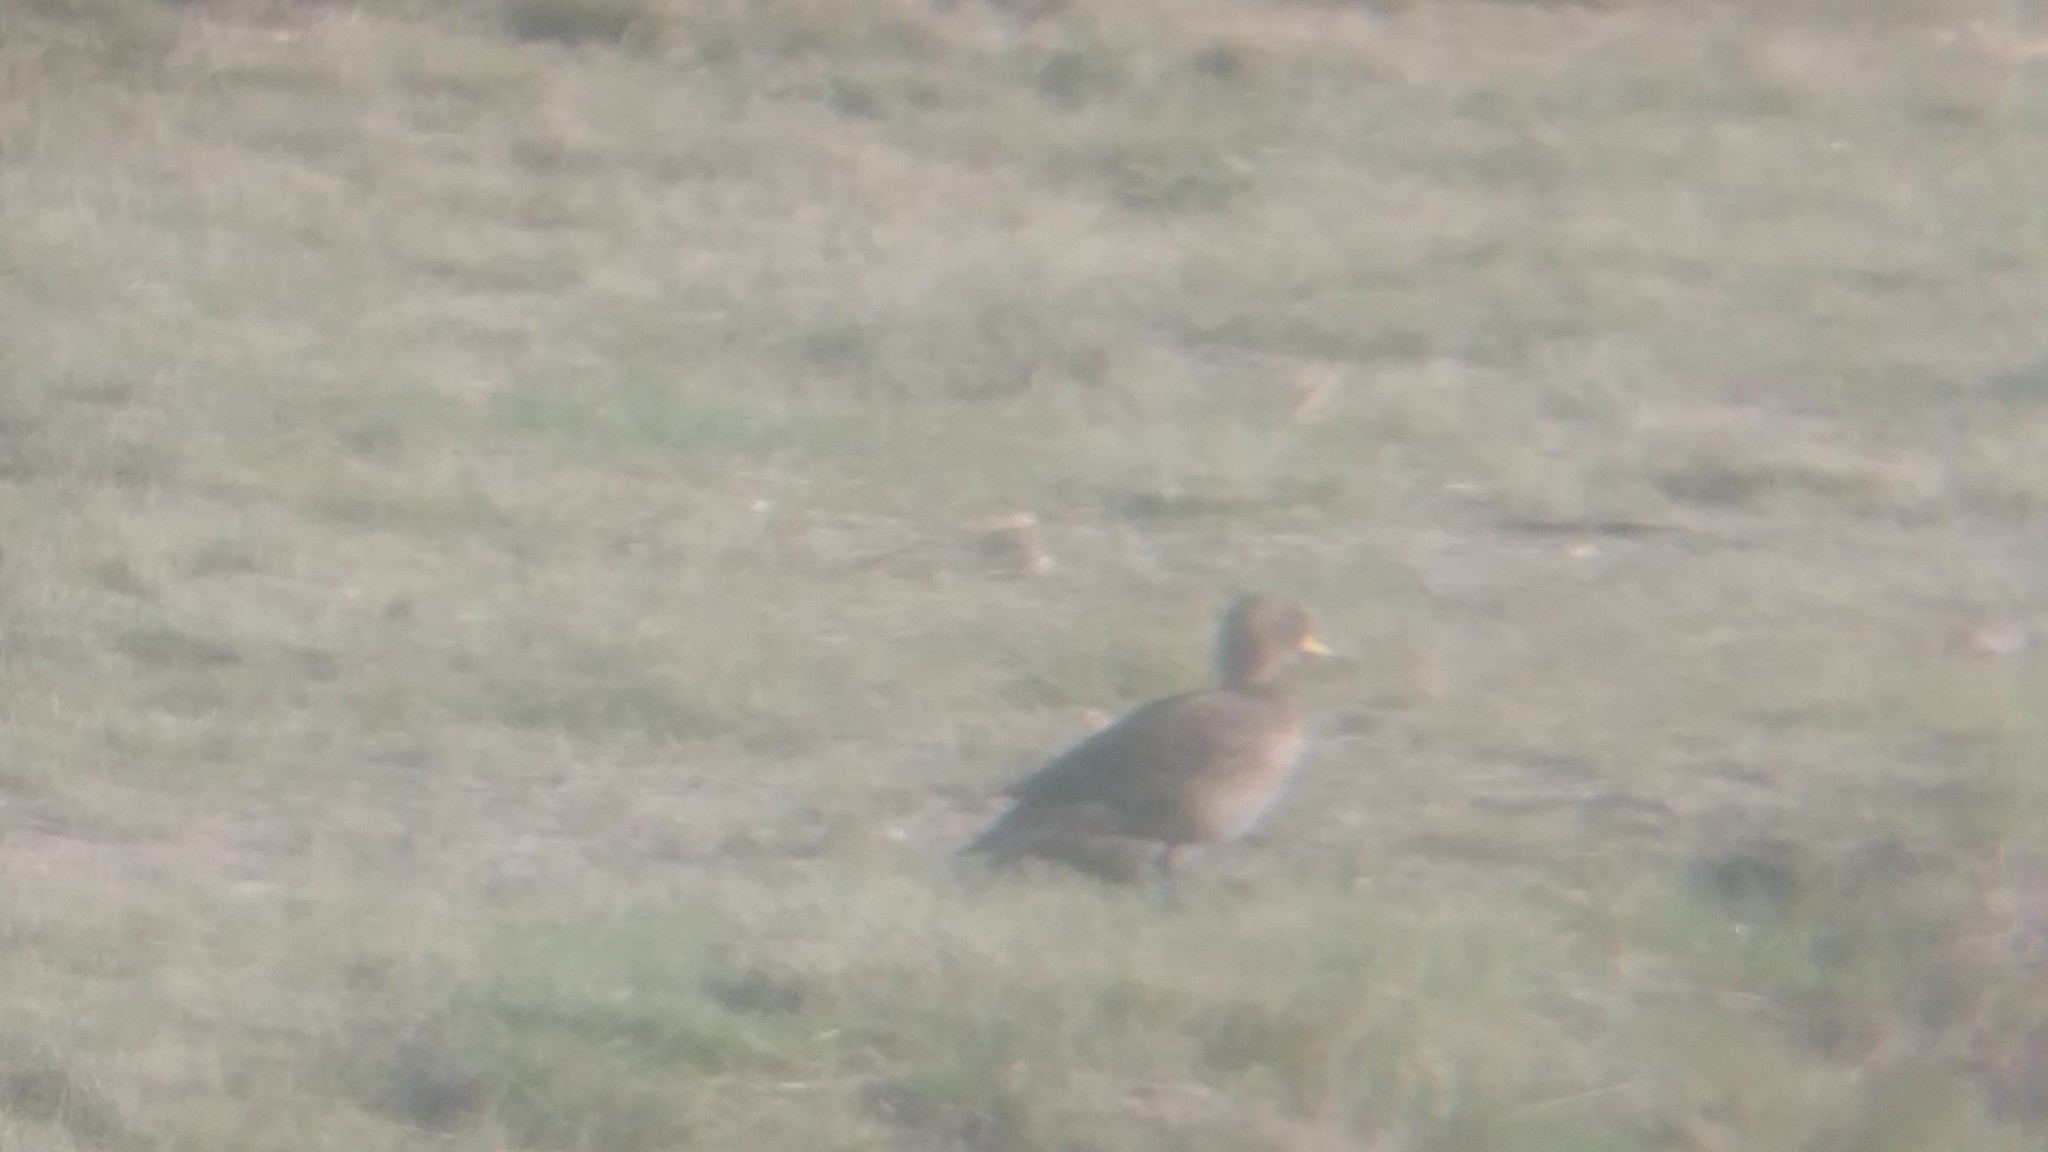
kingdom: Animalia
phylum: Chordata
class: Aves
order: Anseriformes
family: Anatidae
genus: Anas
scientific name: Anas flavirostris
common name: Yellow-billed teal
